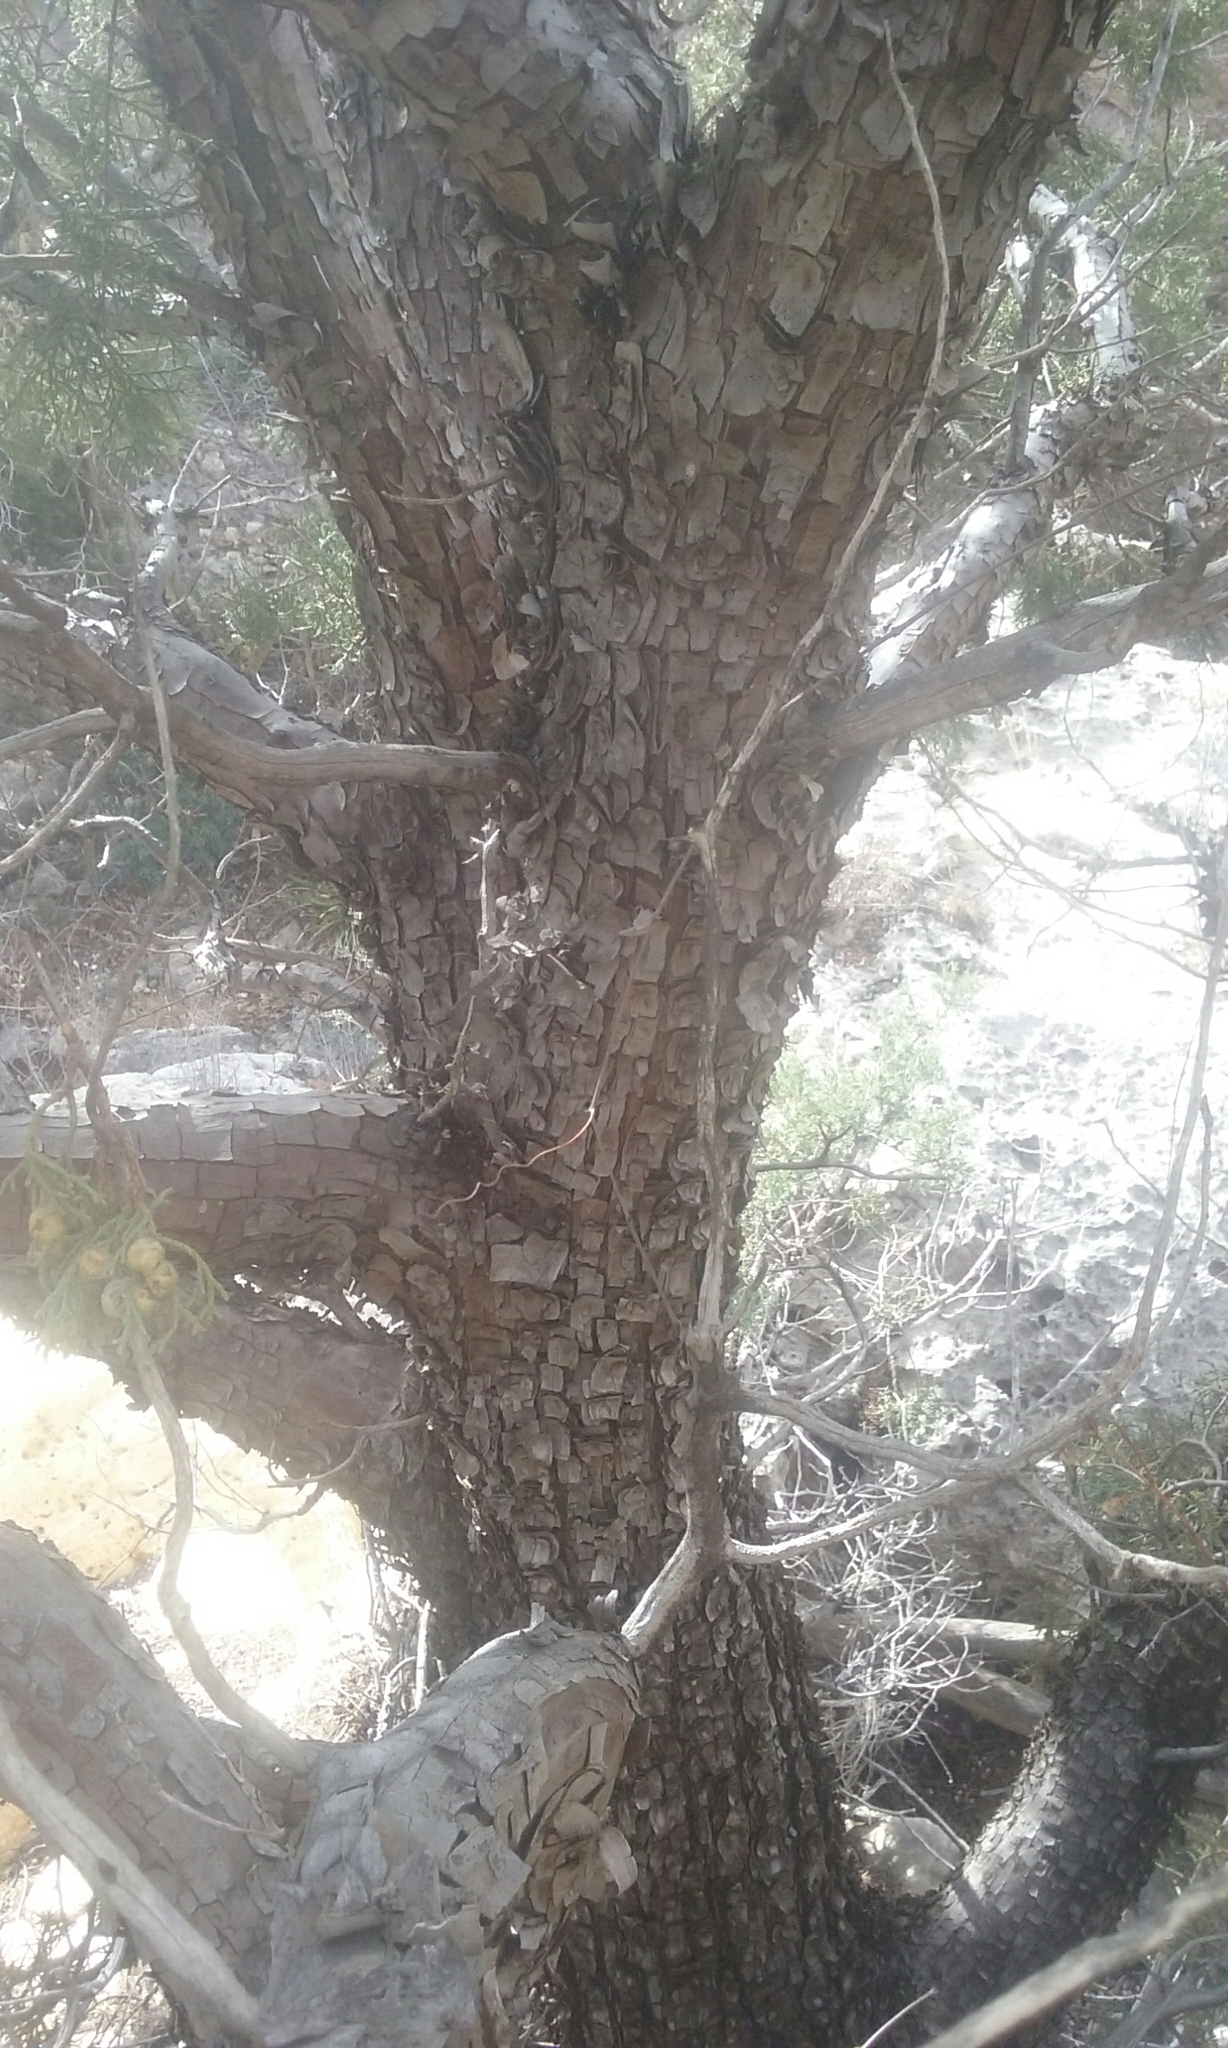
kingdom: Plantae
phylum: Tracheophyta
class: Pinopsida
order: Pinales
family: Cupressaceae
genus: Juniperus
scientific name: Juniperus deppeana
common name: Alligator juniper
